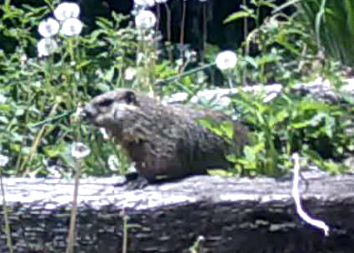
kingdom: Animalia
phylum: Chordata
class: Mammalia
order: Rodentia
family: Sciuridae
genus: Marmota
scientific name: Marmota monax
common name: Groundhog
